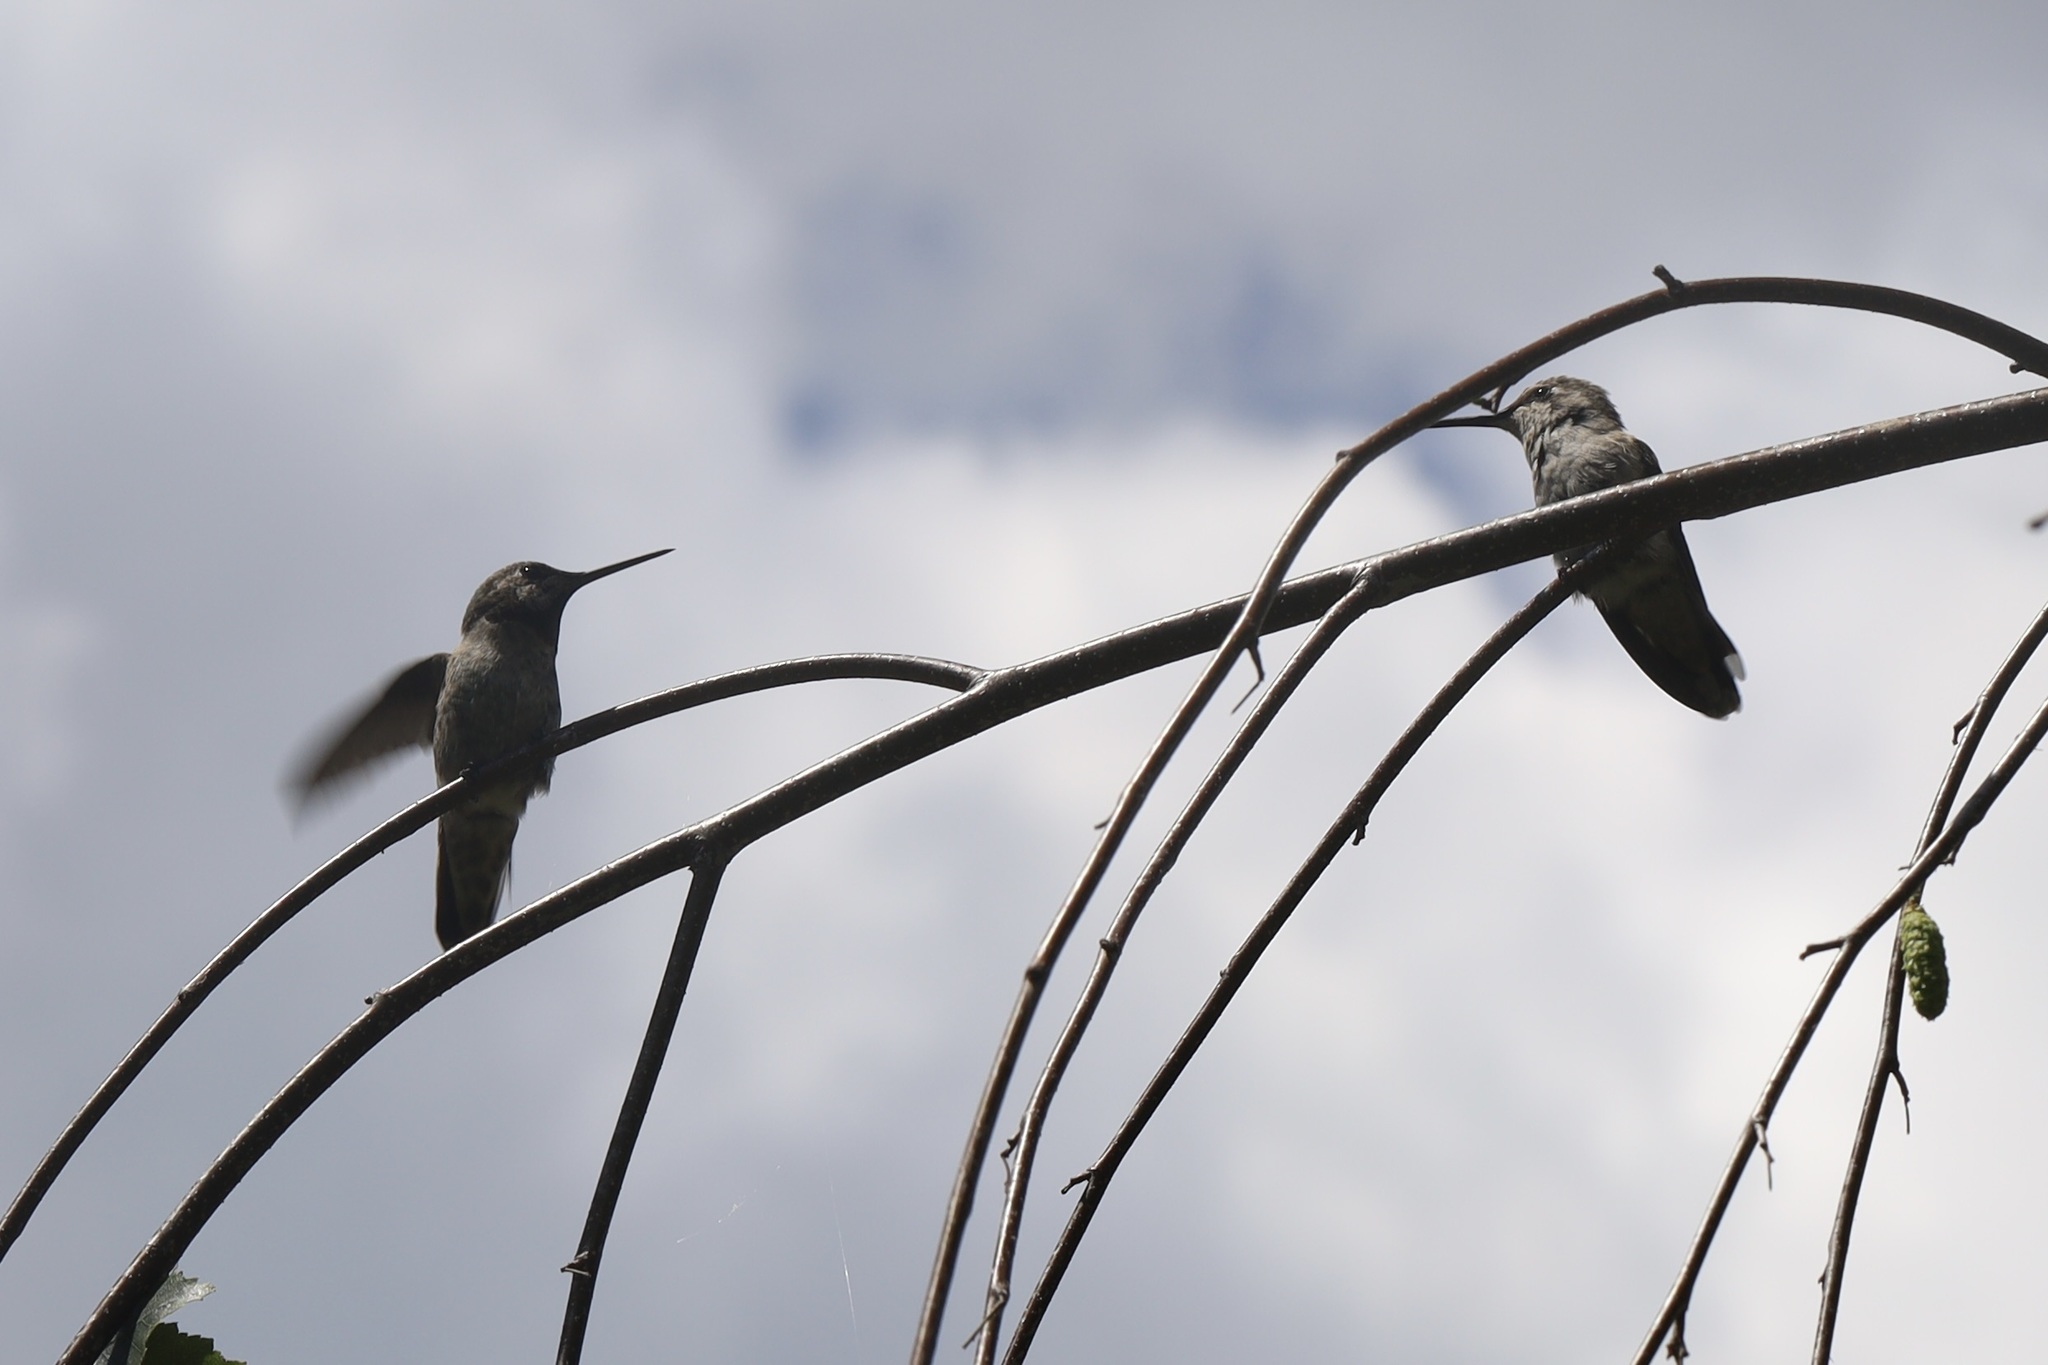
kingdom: Animalia
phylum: Chordata
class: Aves
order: Apodiformes
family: Trochilidae
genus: Calypte
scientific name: Calypte anna
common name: Anna's hummingbird
